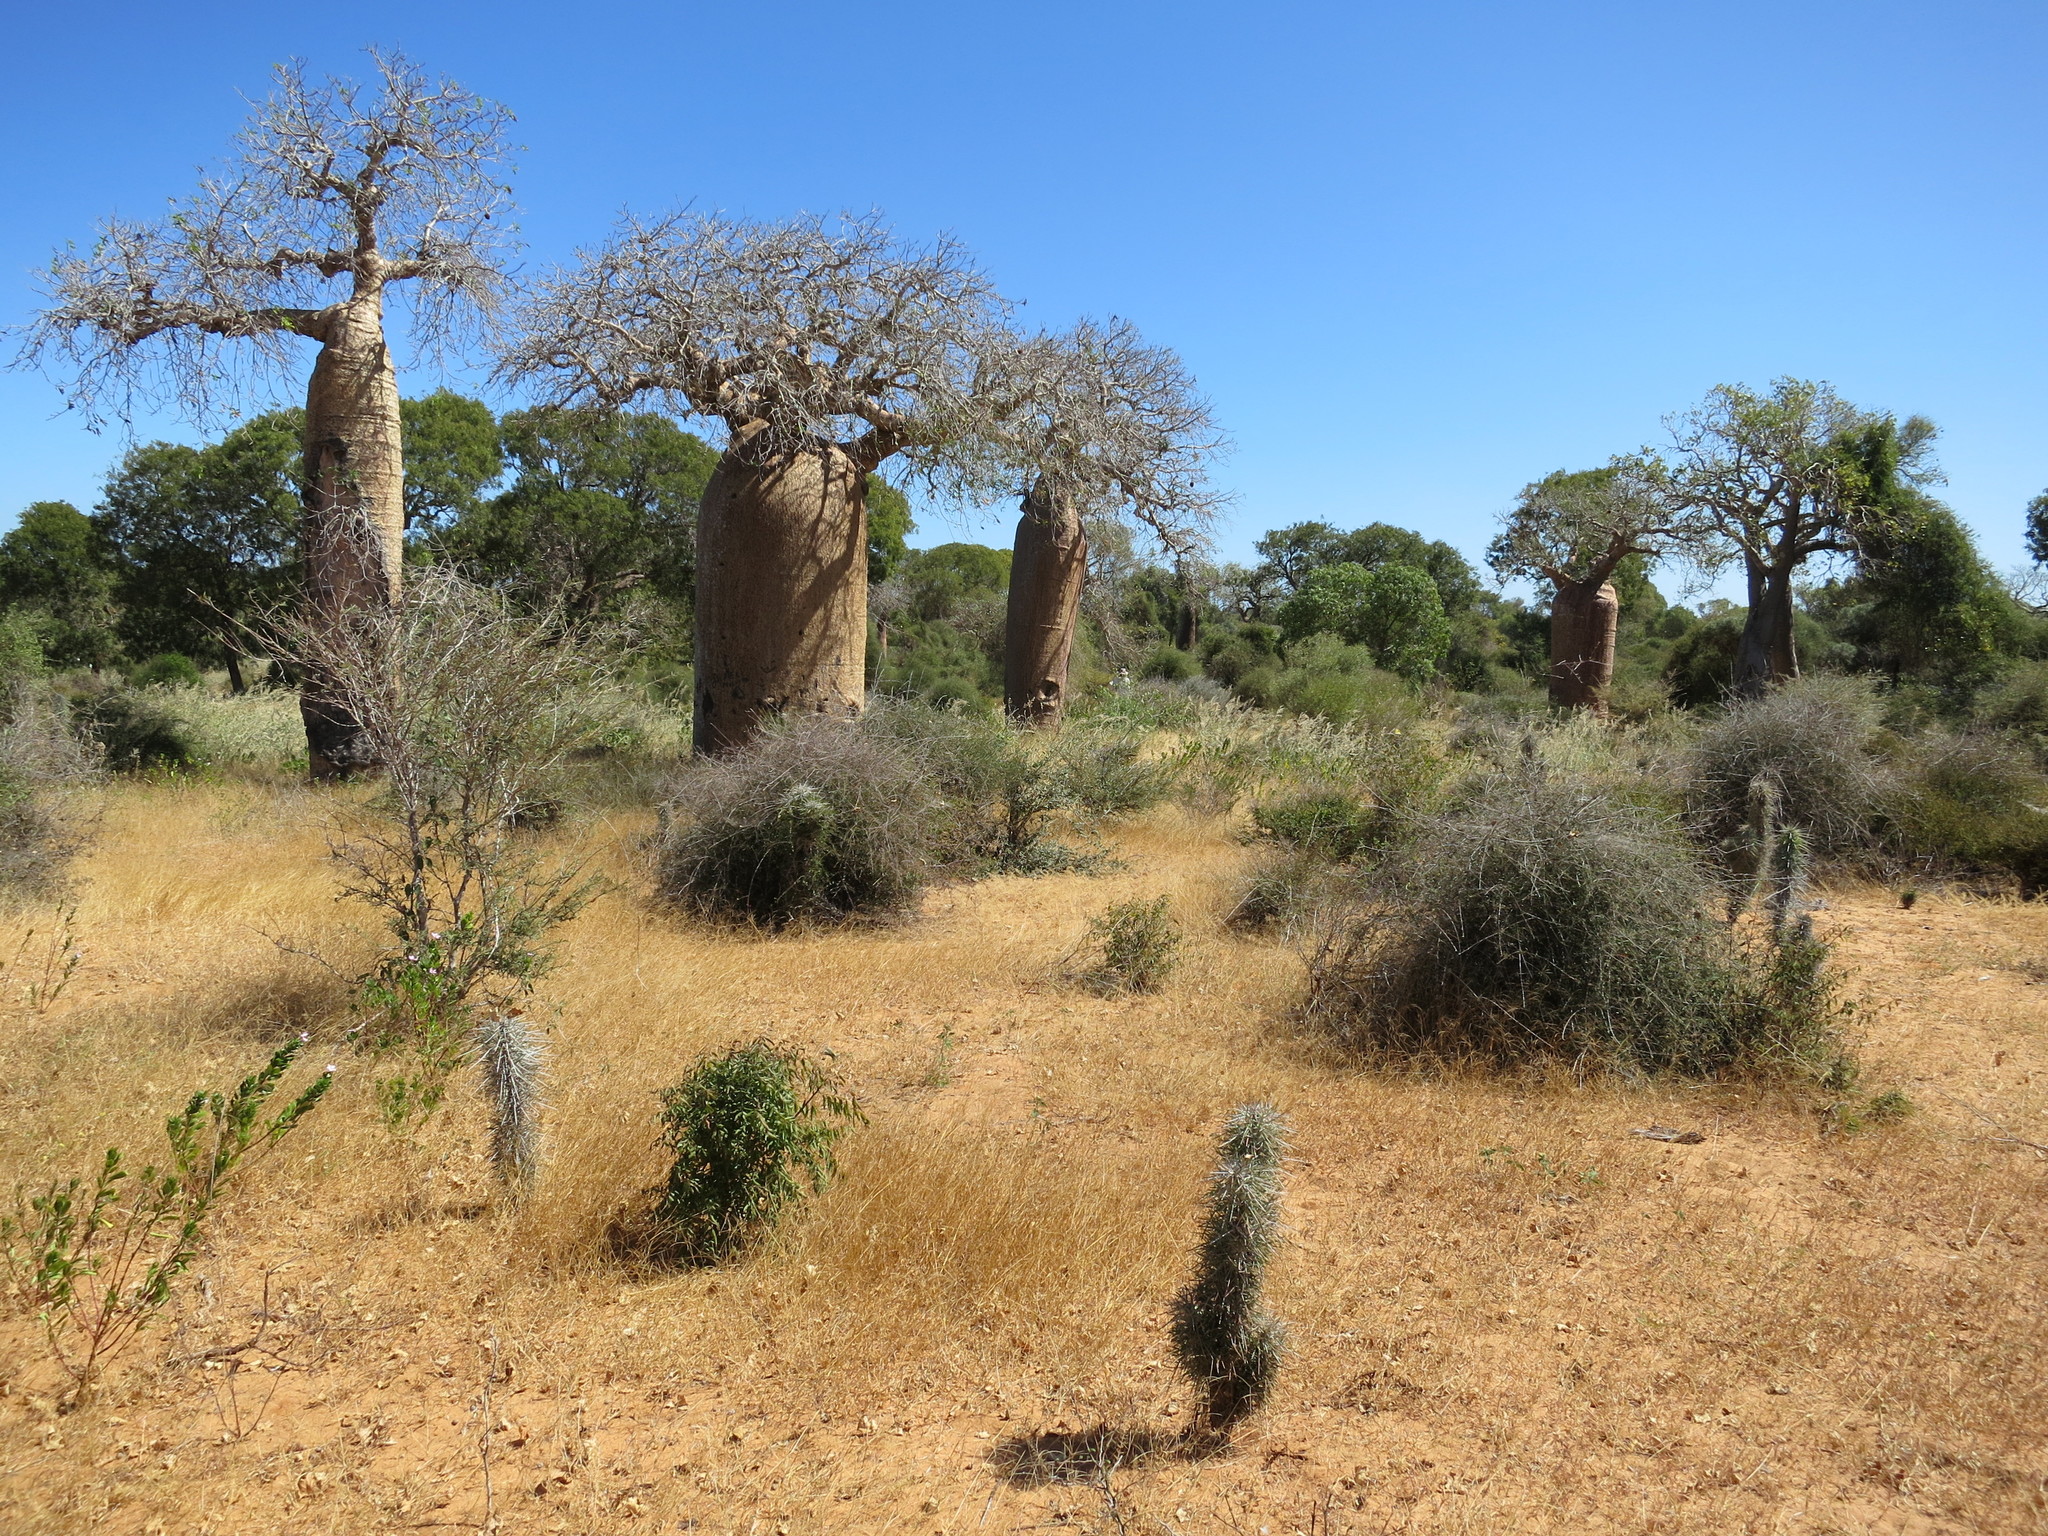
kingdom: Plantae
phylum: Tracheophyta
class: Magnoliopsida
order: Malvales
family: Malvaceae
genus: Adansonia
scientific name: Adansonia rubrostipa
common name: Fony baobab
